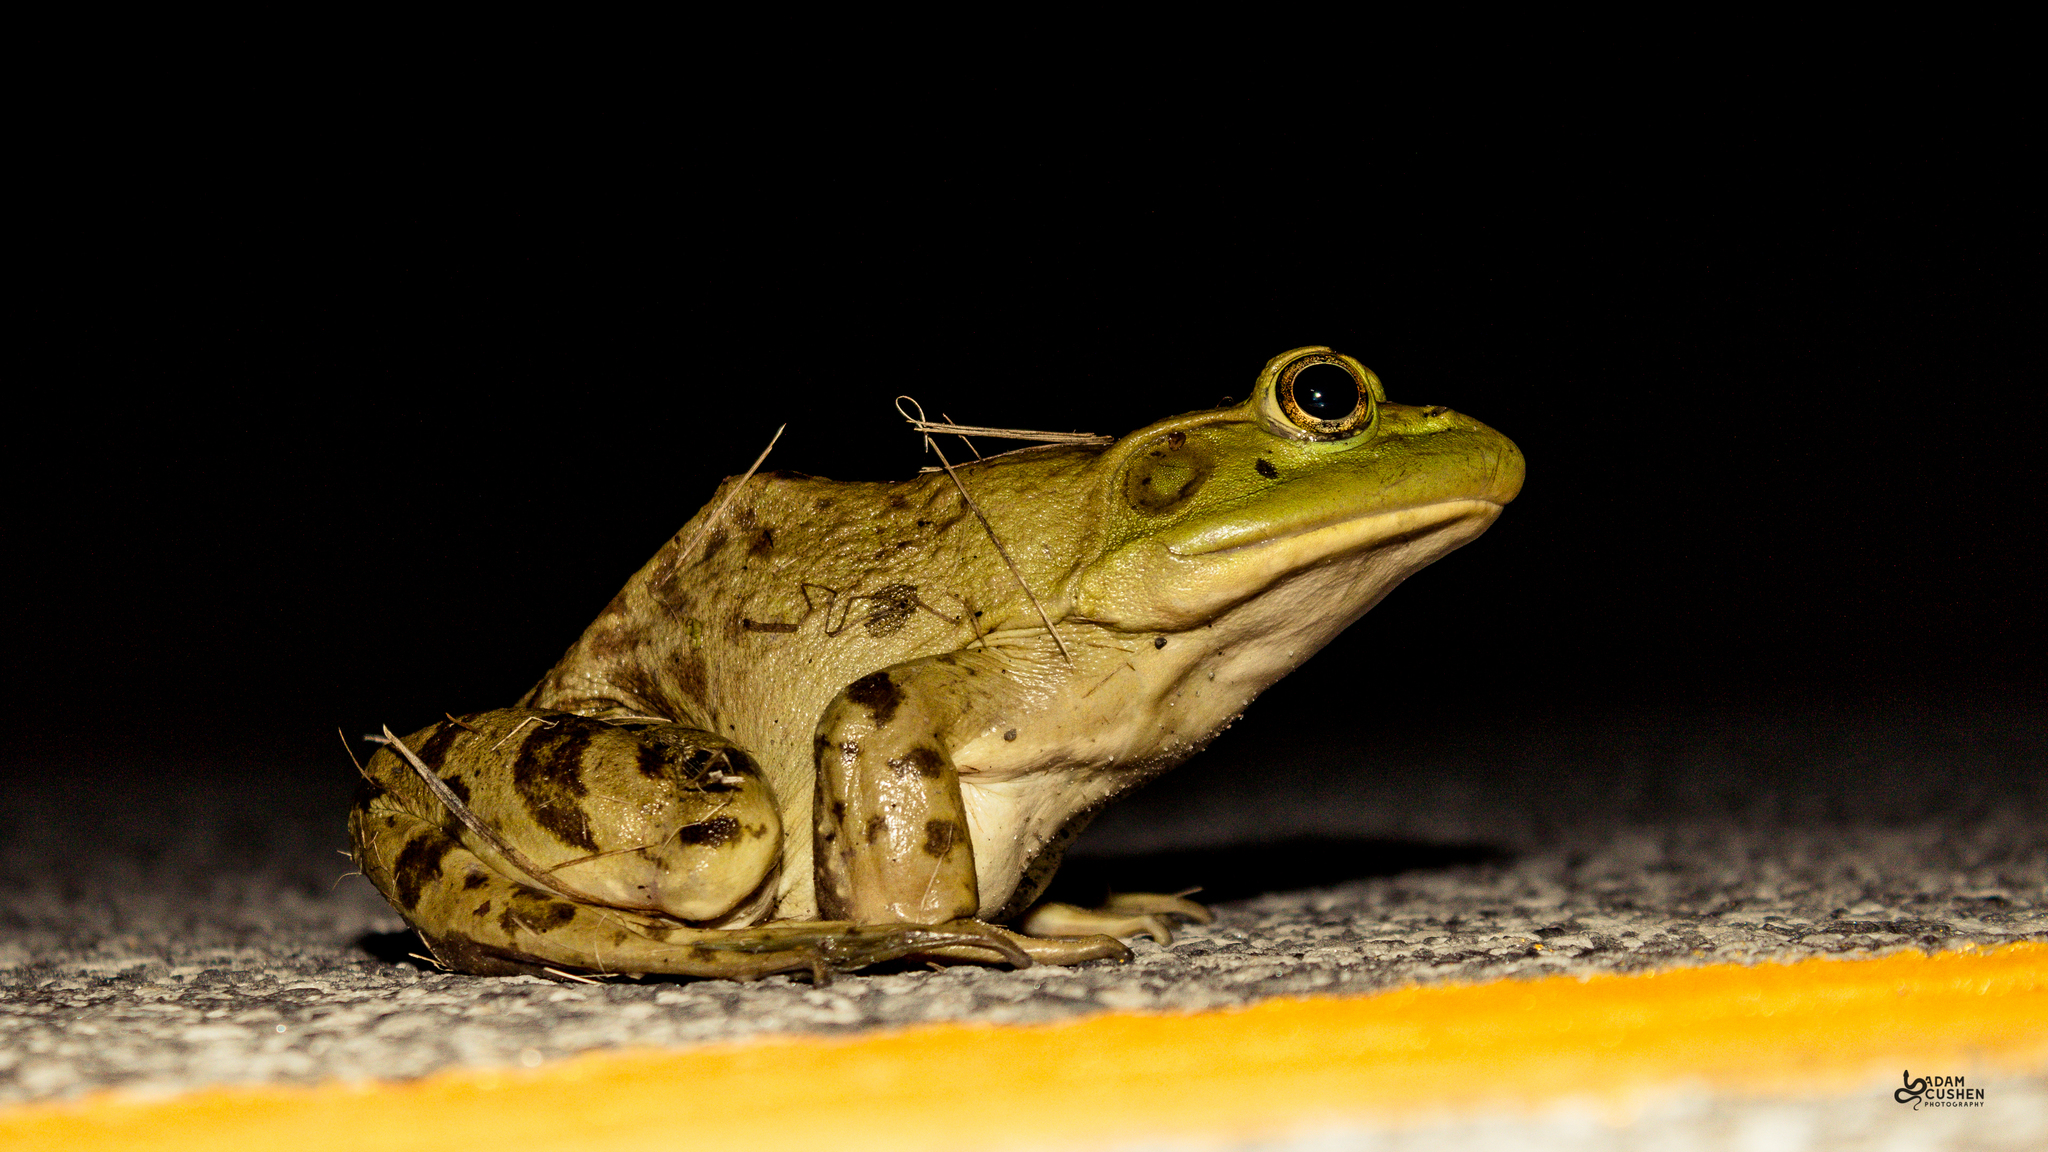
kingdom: Animalia
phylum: Chordata
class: Amphibia
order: Anura
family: Ranidae
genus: Lithobates
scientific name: Lithobates catesbeianus
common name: American bullfrog
